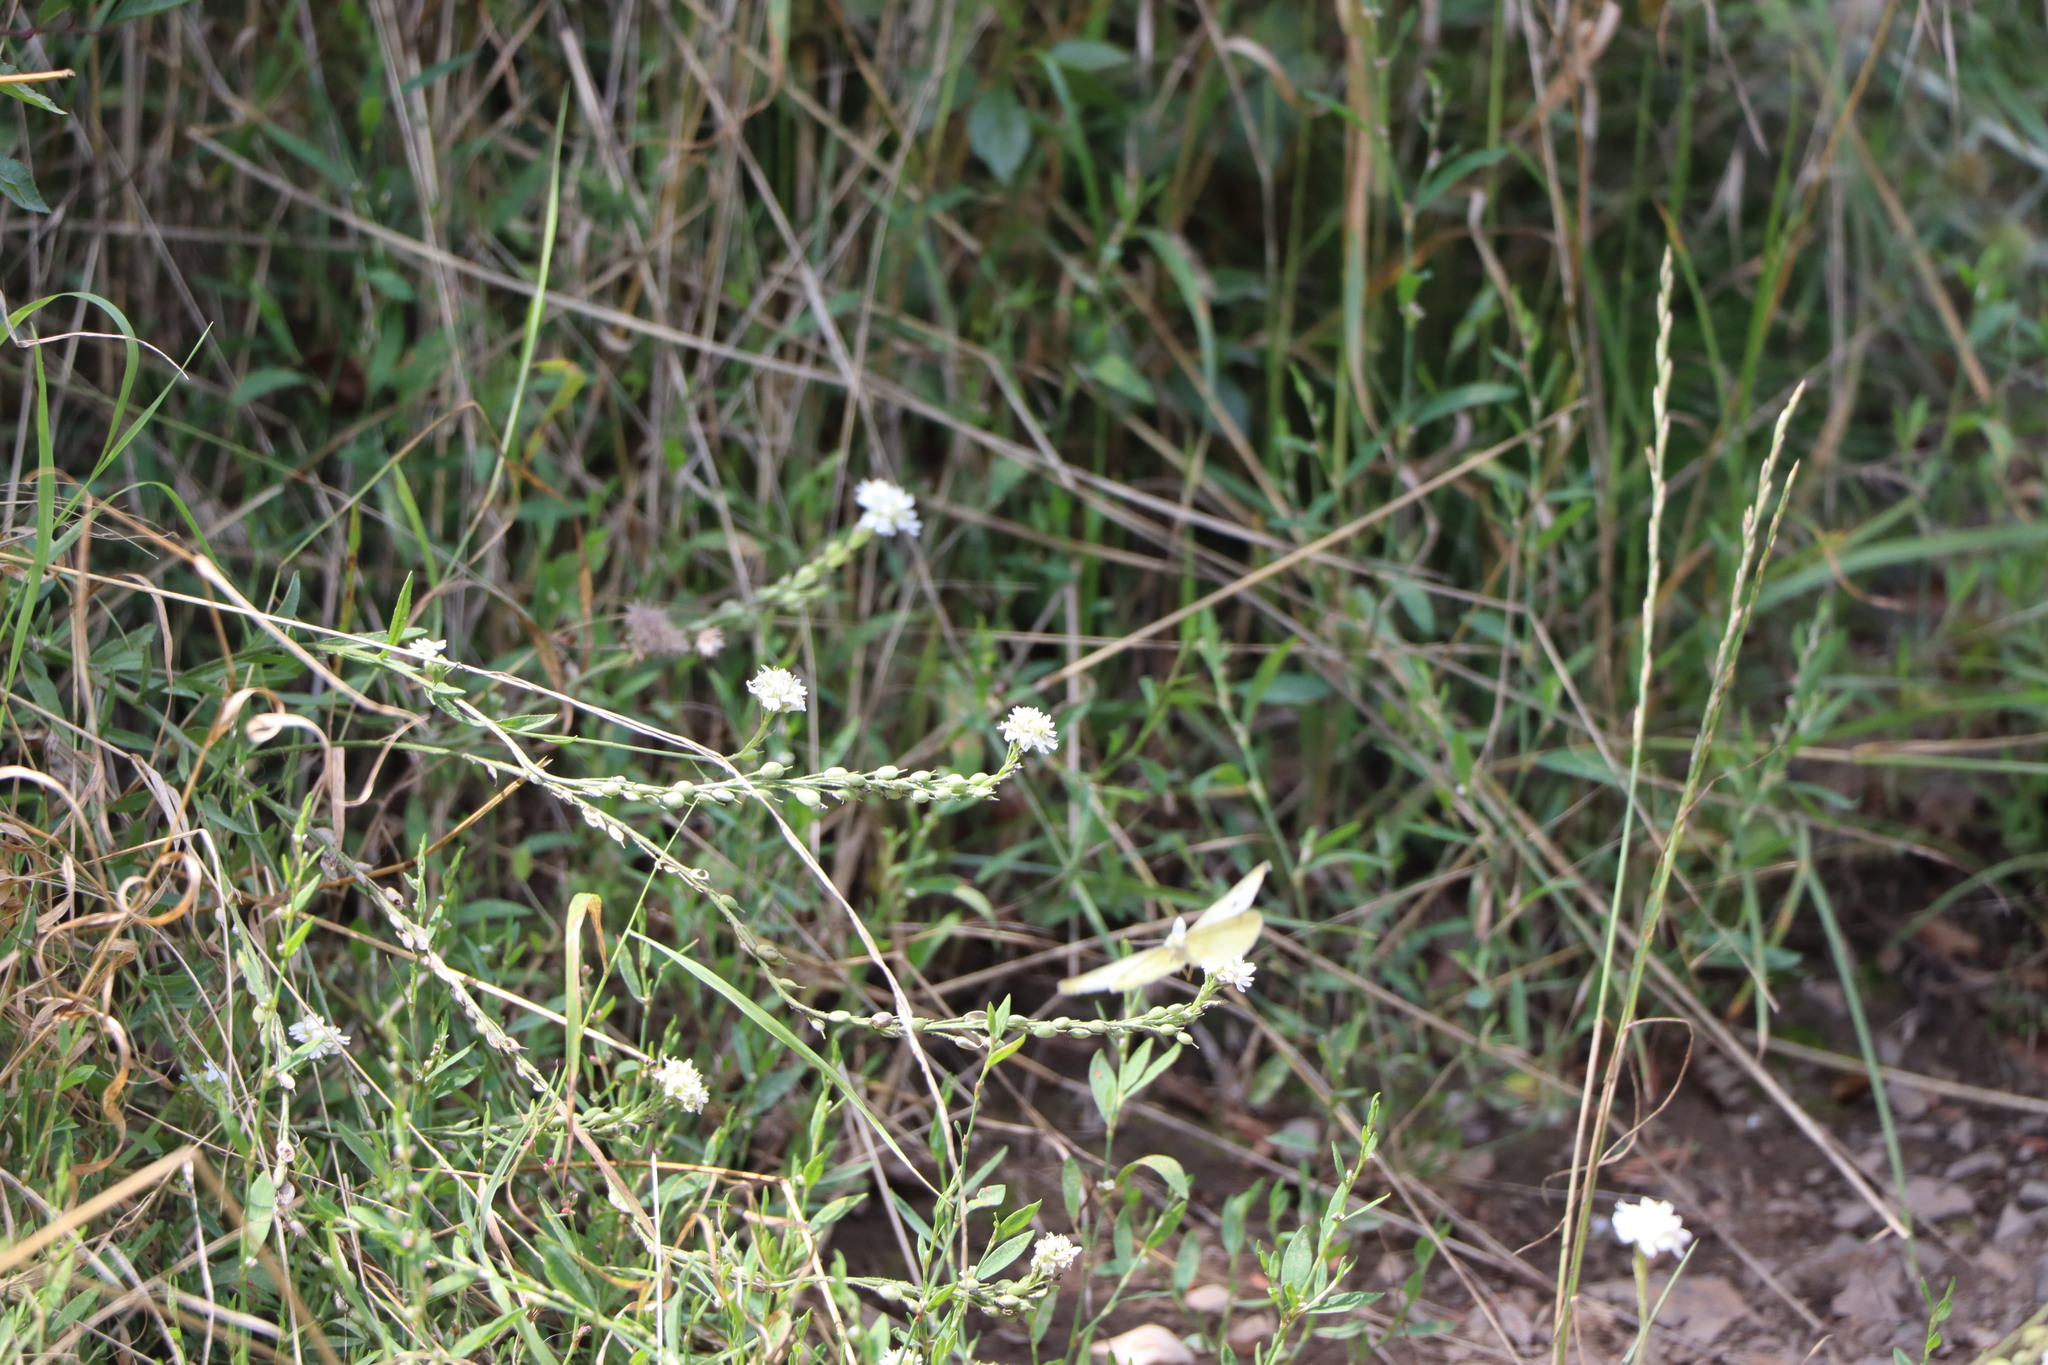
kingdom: Animalia
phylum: Arthropoda
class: Insecta
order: Lepidoptera
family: Pieridae
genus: Pieris
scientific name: Pieris rapae
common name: Small white
